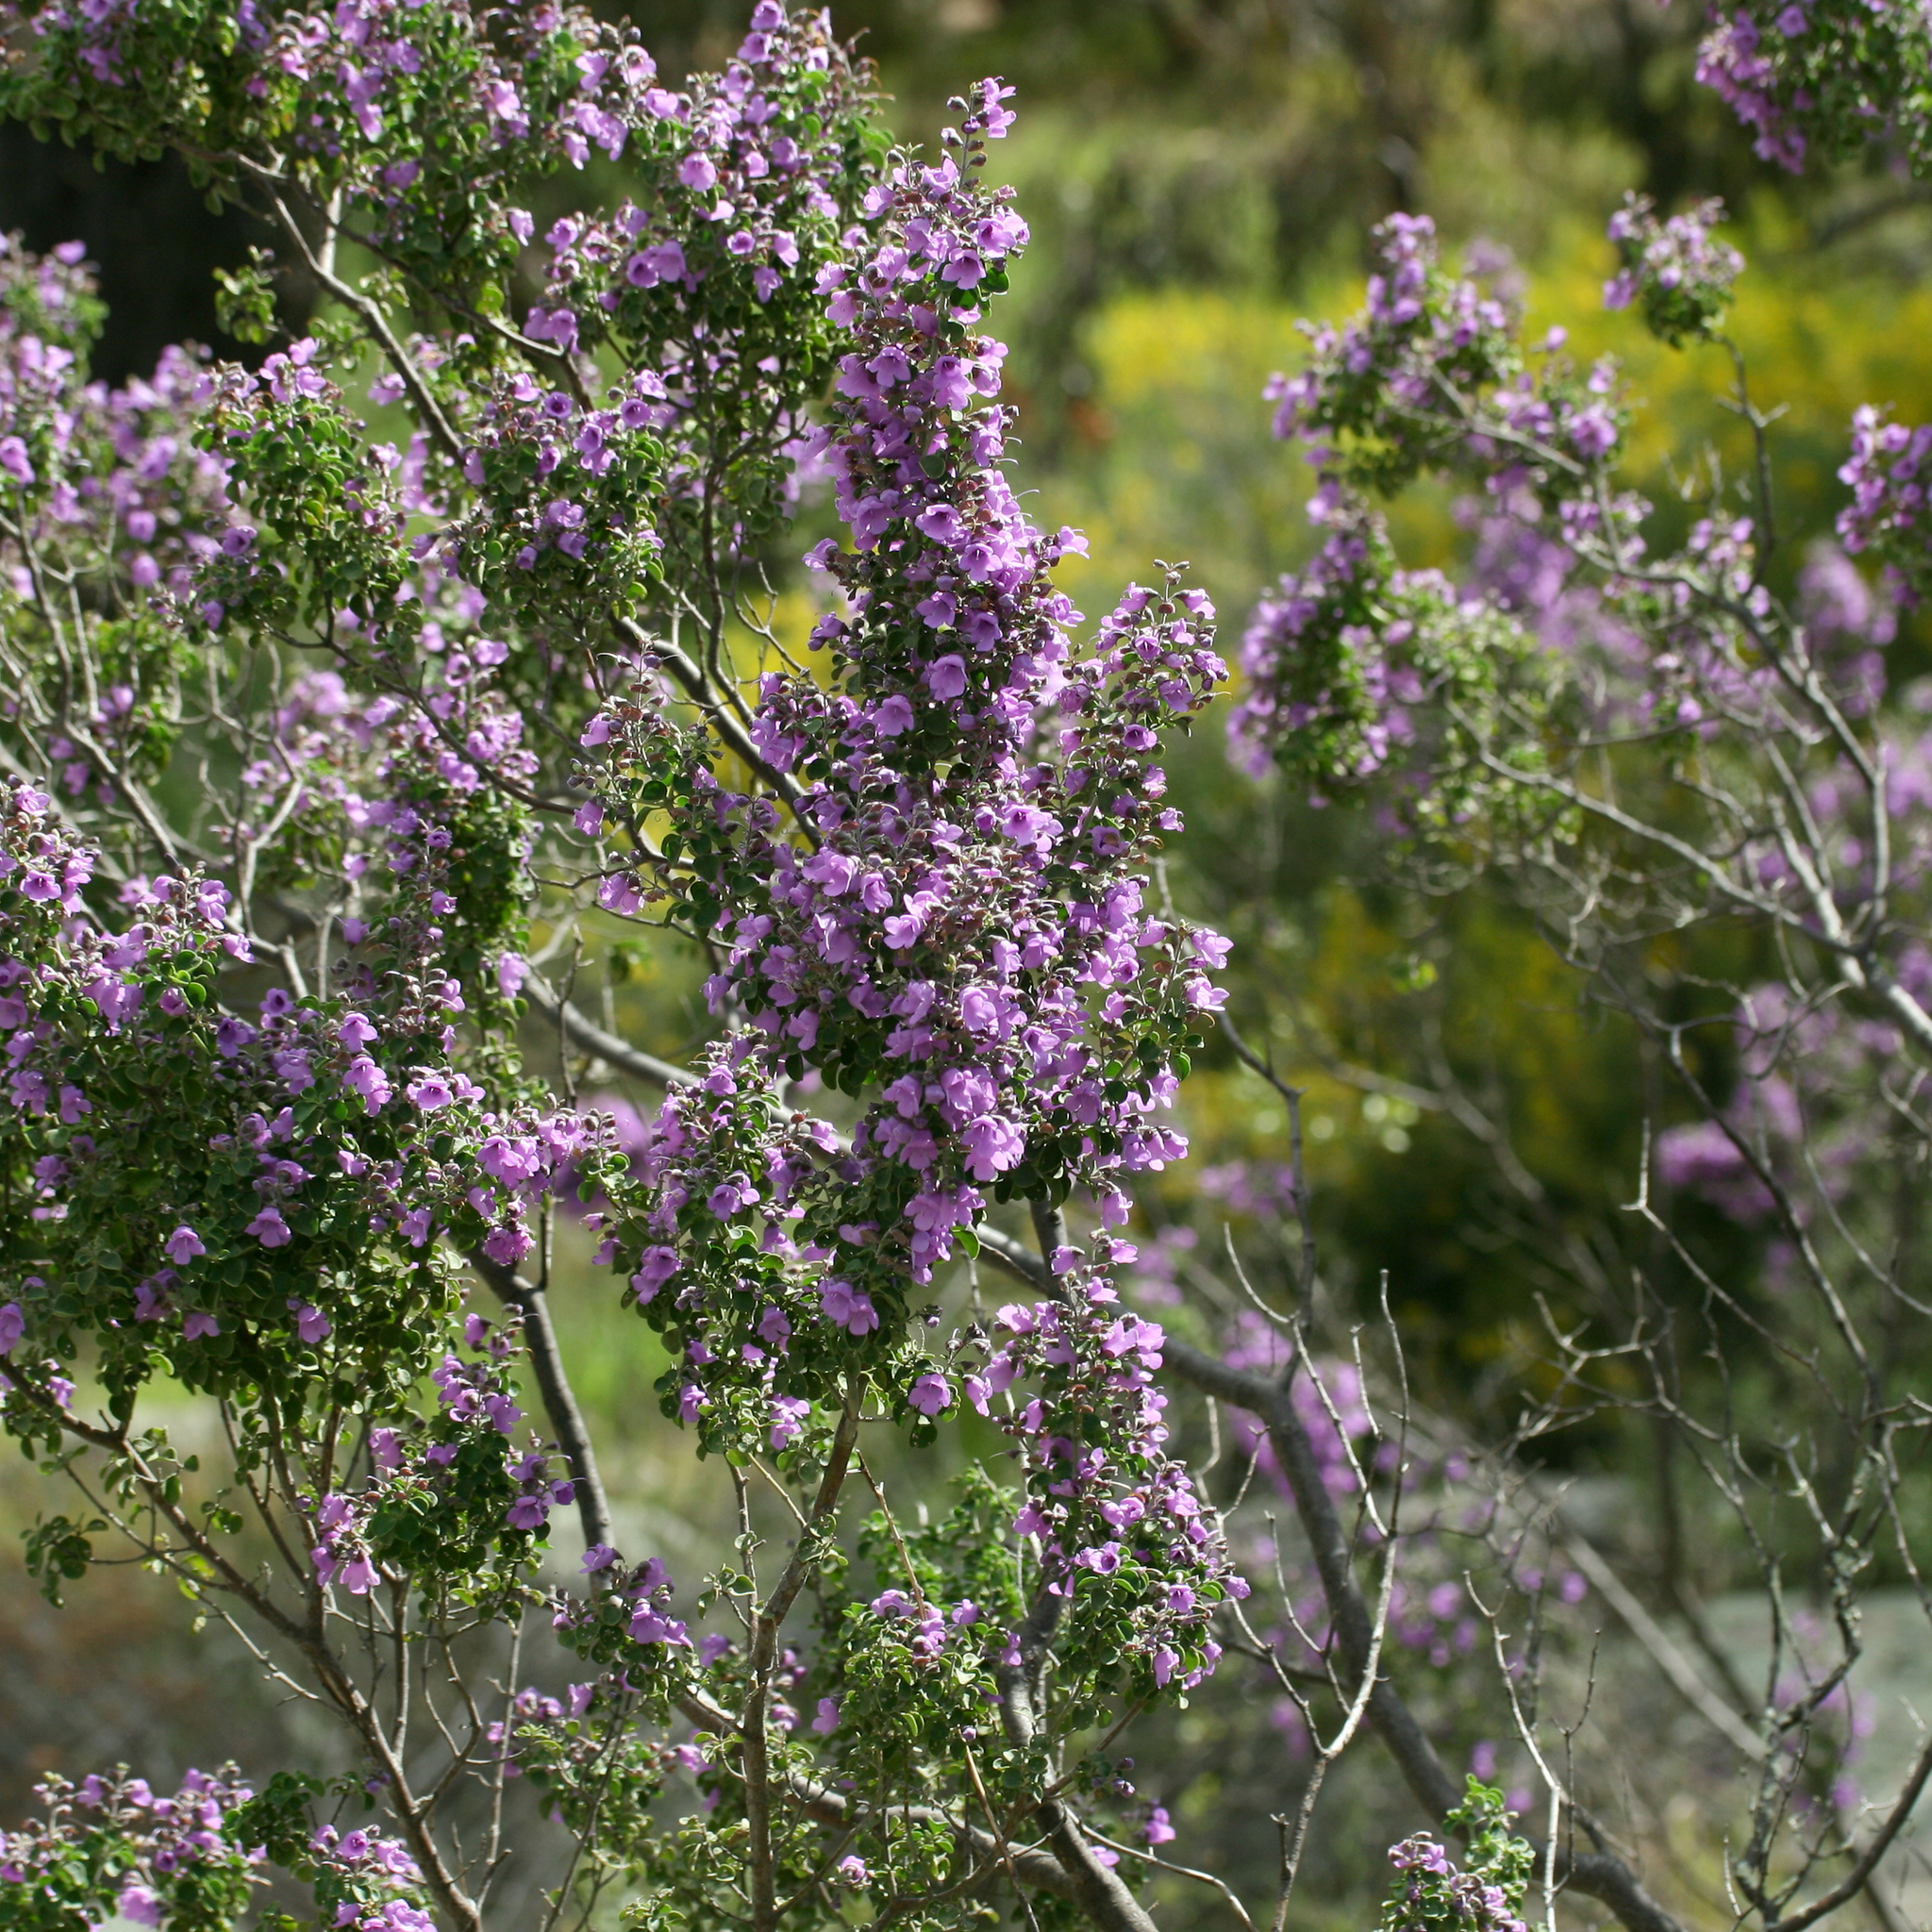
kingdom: Plantae
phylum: Tracheophyta
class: Magnoliopsida
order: Lamiales
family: Lamiaceae
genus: Prostanthera
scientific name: Prostanthera rotundifolia
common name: Round-leaf mintbush
